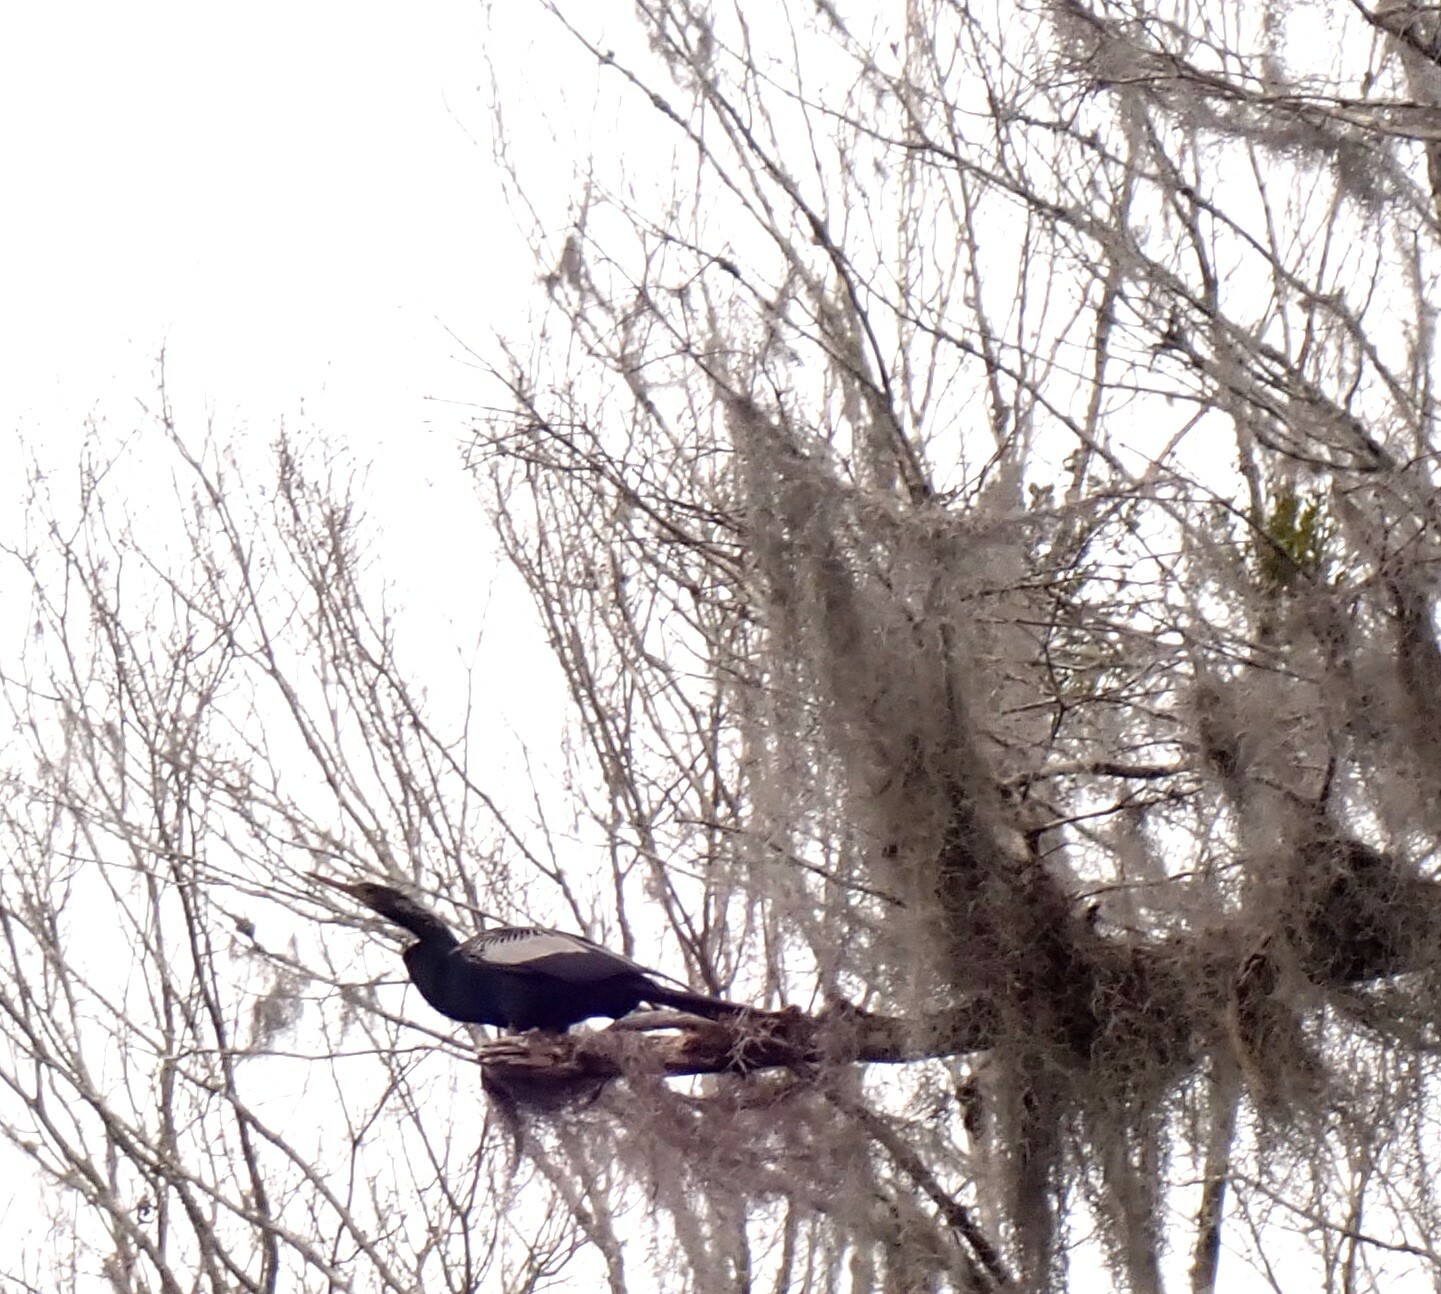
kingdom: Animalia
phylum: Chordata
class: Aves
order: Suliformes
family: Anhingidae
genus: Anhinga
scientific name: Anhinga anhinga
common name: Anhinga
